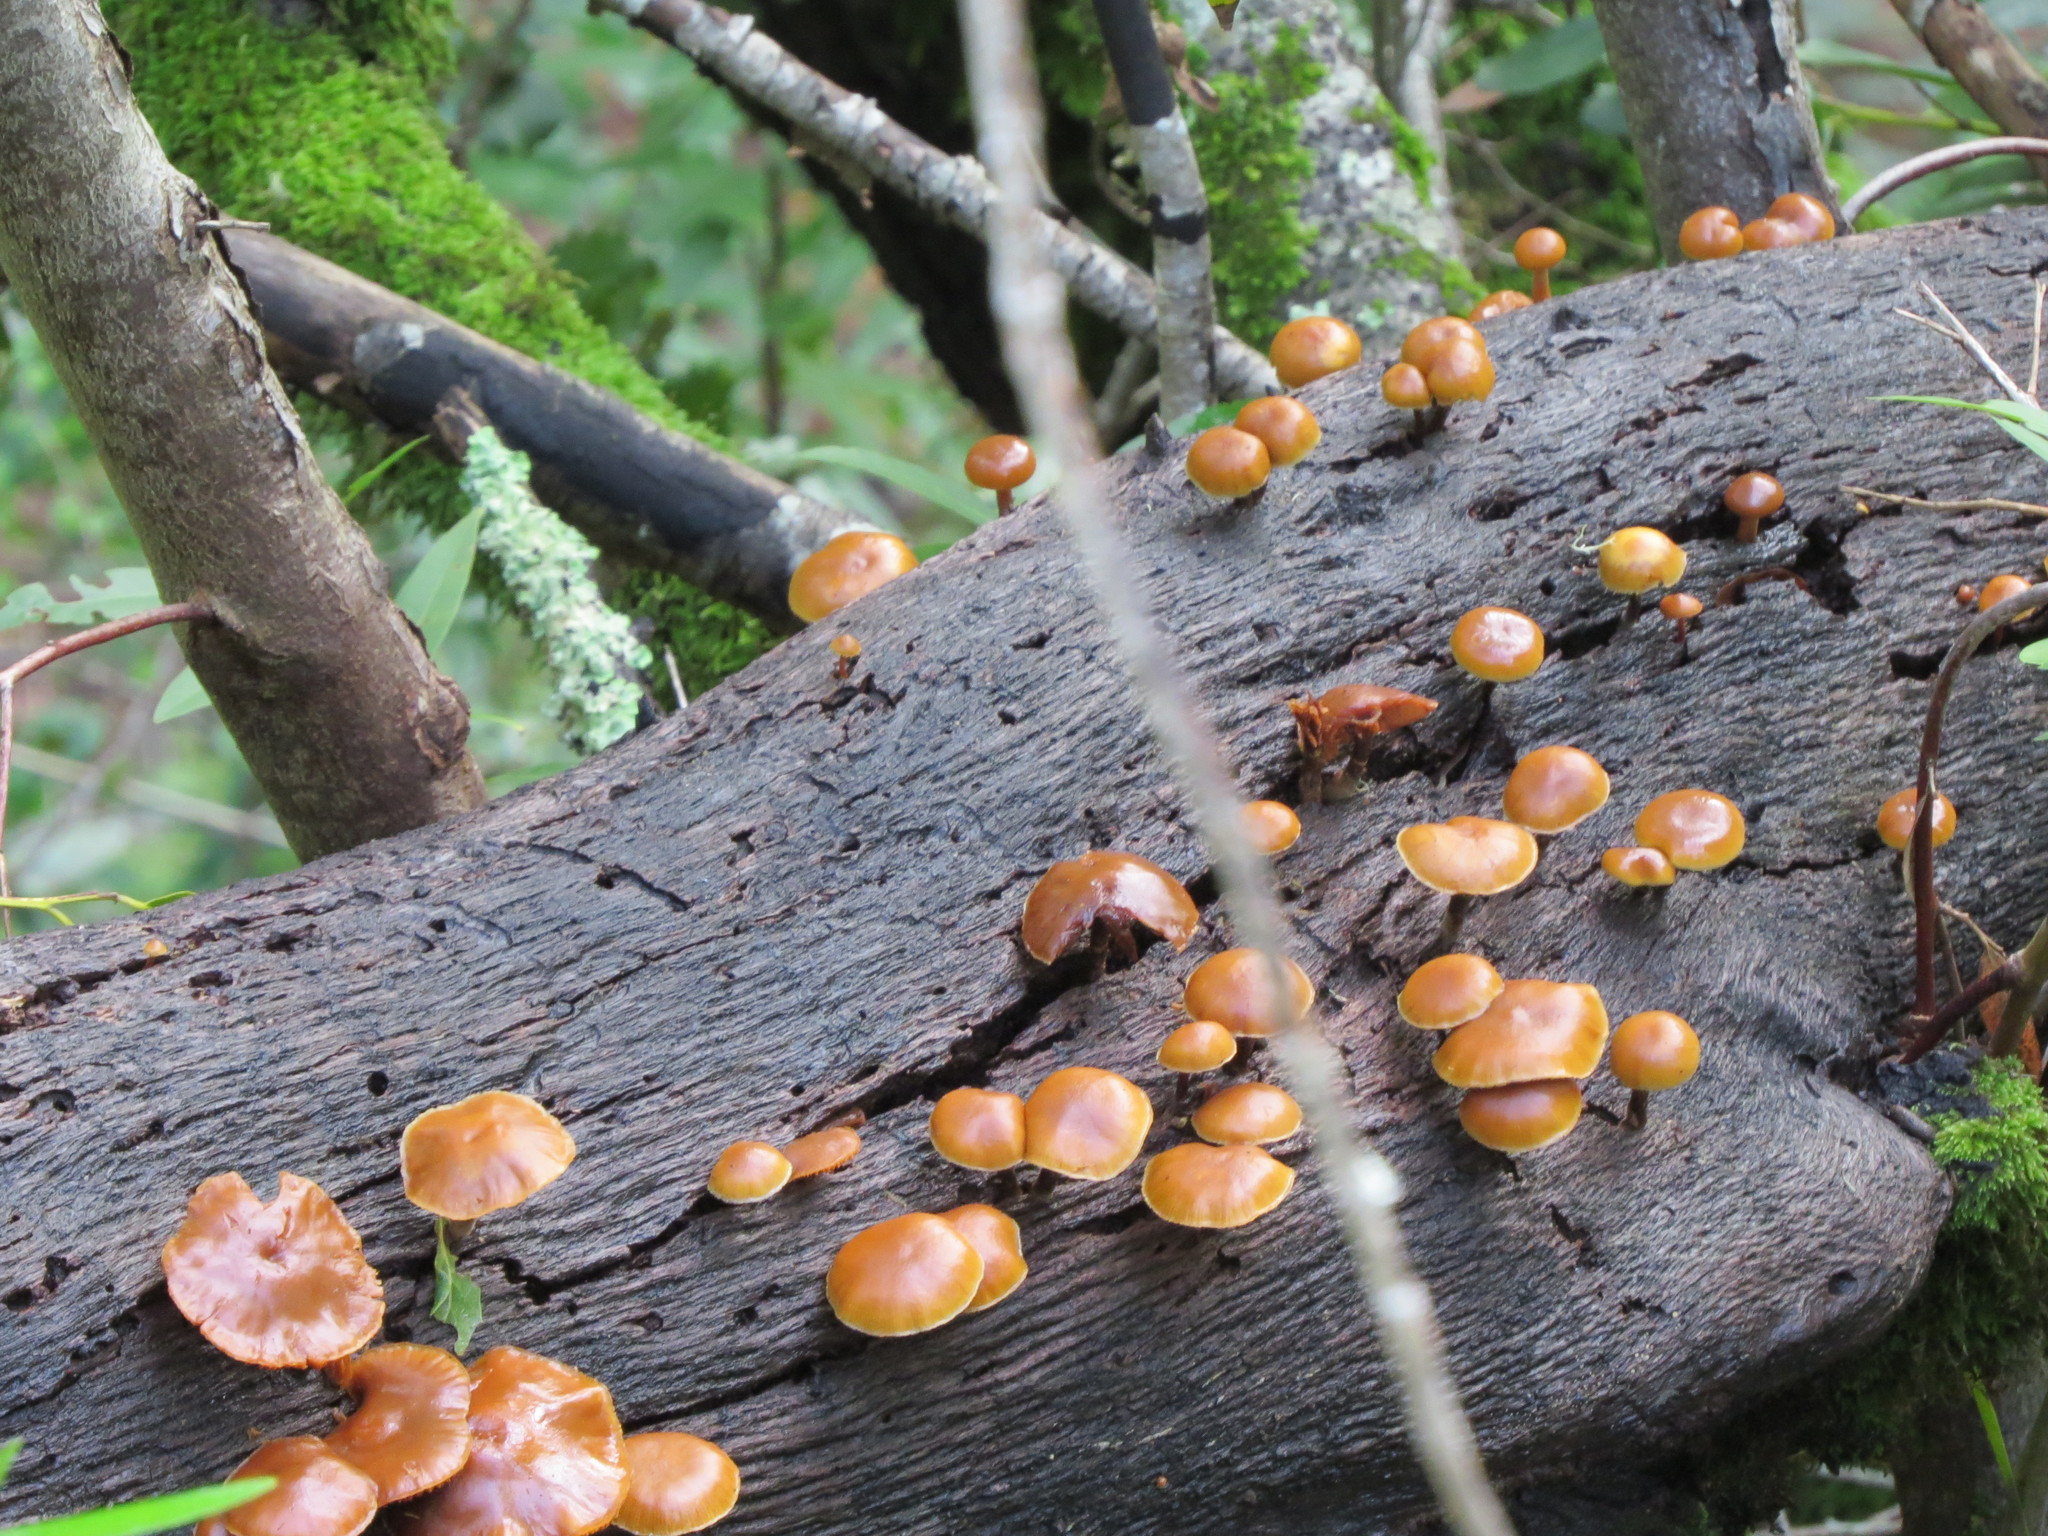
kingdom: Fungi
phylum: Basidiomycota
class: Agaricomycetes
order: Agaricales
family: Hymenogastraceae
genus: Galerina
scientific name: Galerina marginata
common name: Funeral bell
